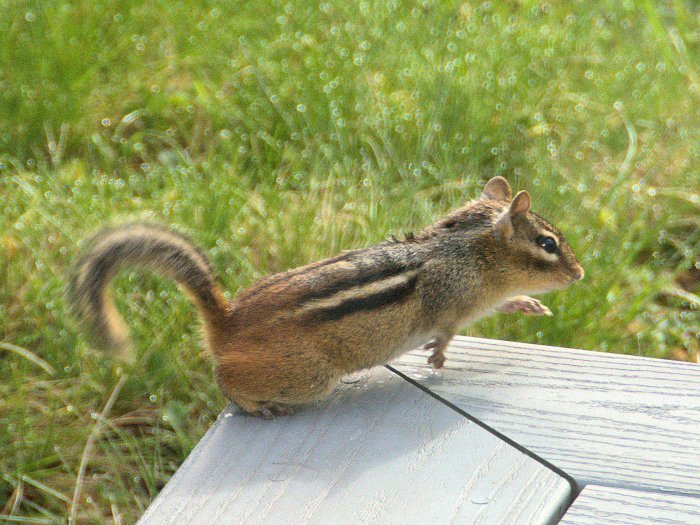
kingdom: Animalia
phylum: Chordata
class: Mammalia
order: Rodentia
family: Sciuridae
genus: Tamias
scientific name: Tamias striatus
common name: Eastern chipmunk
